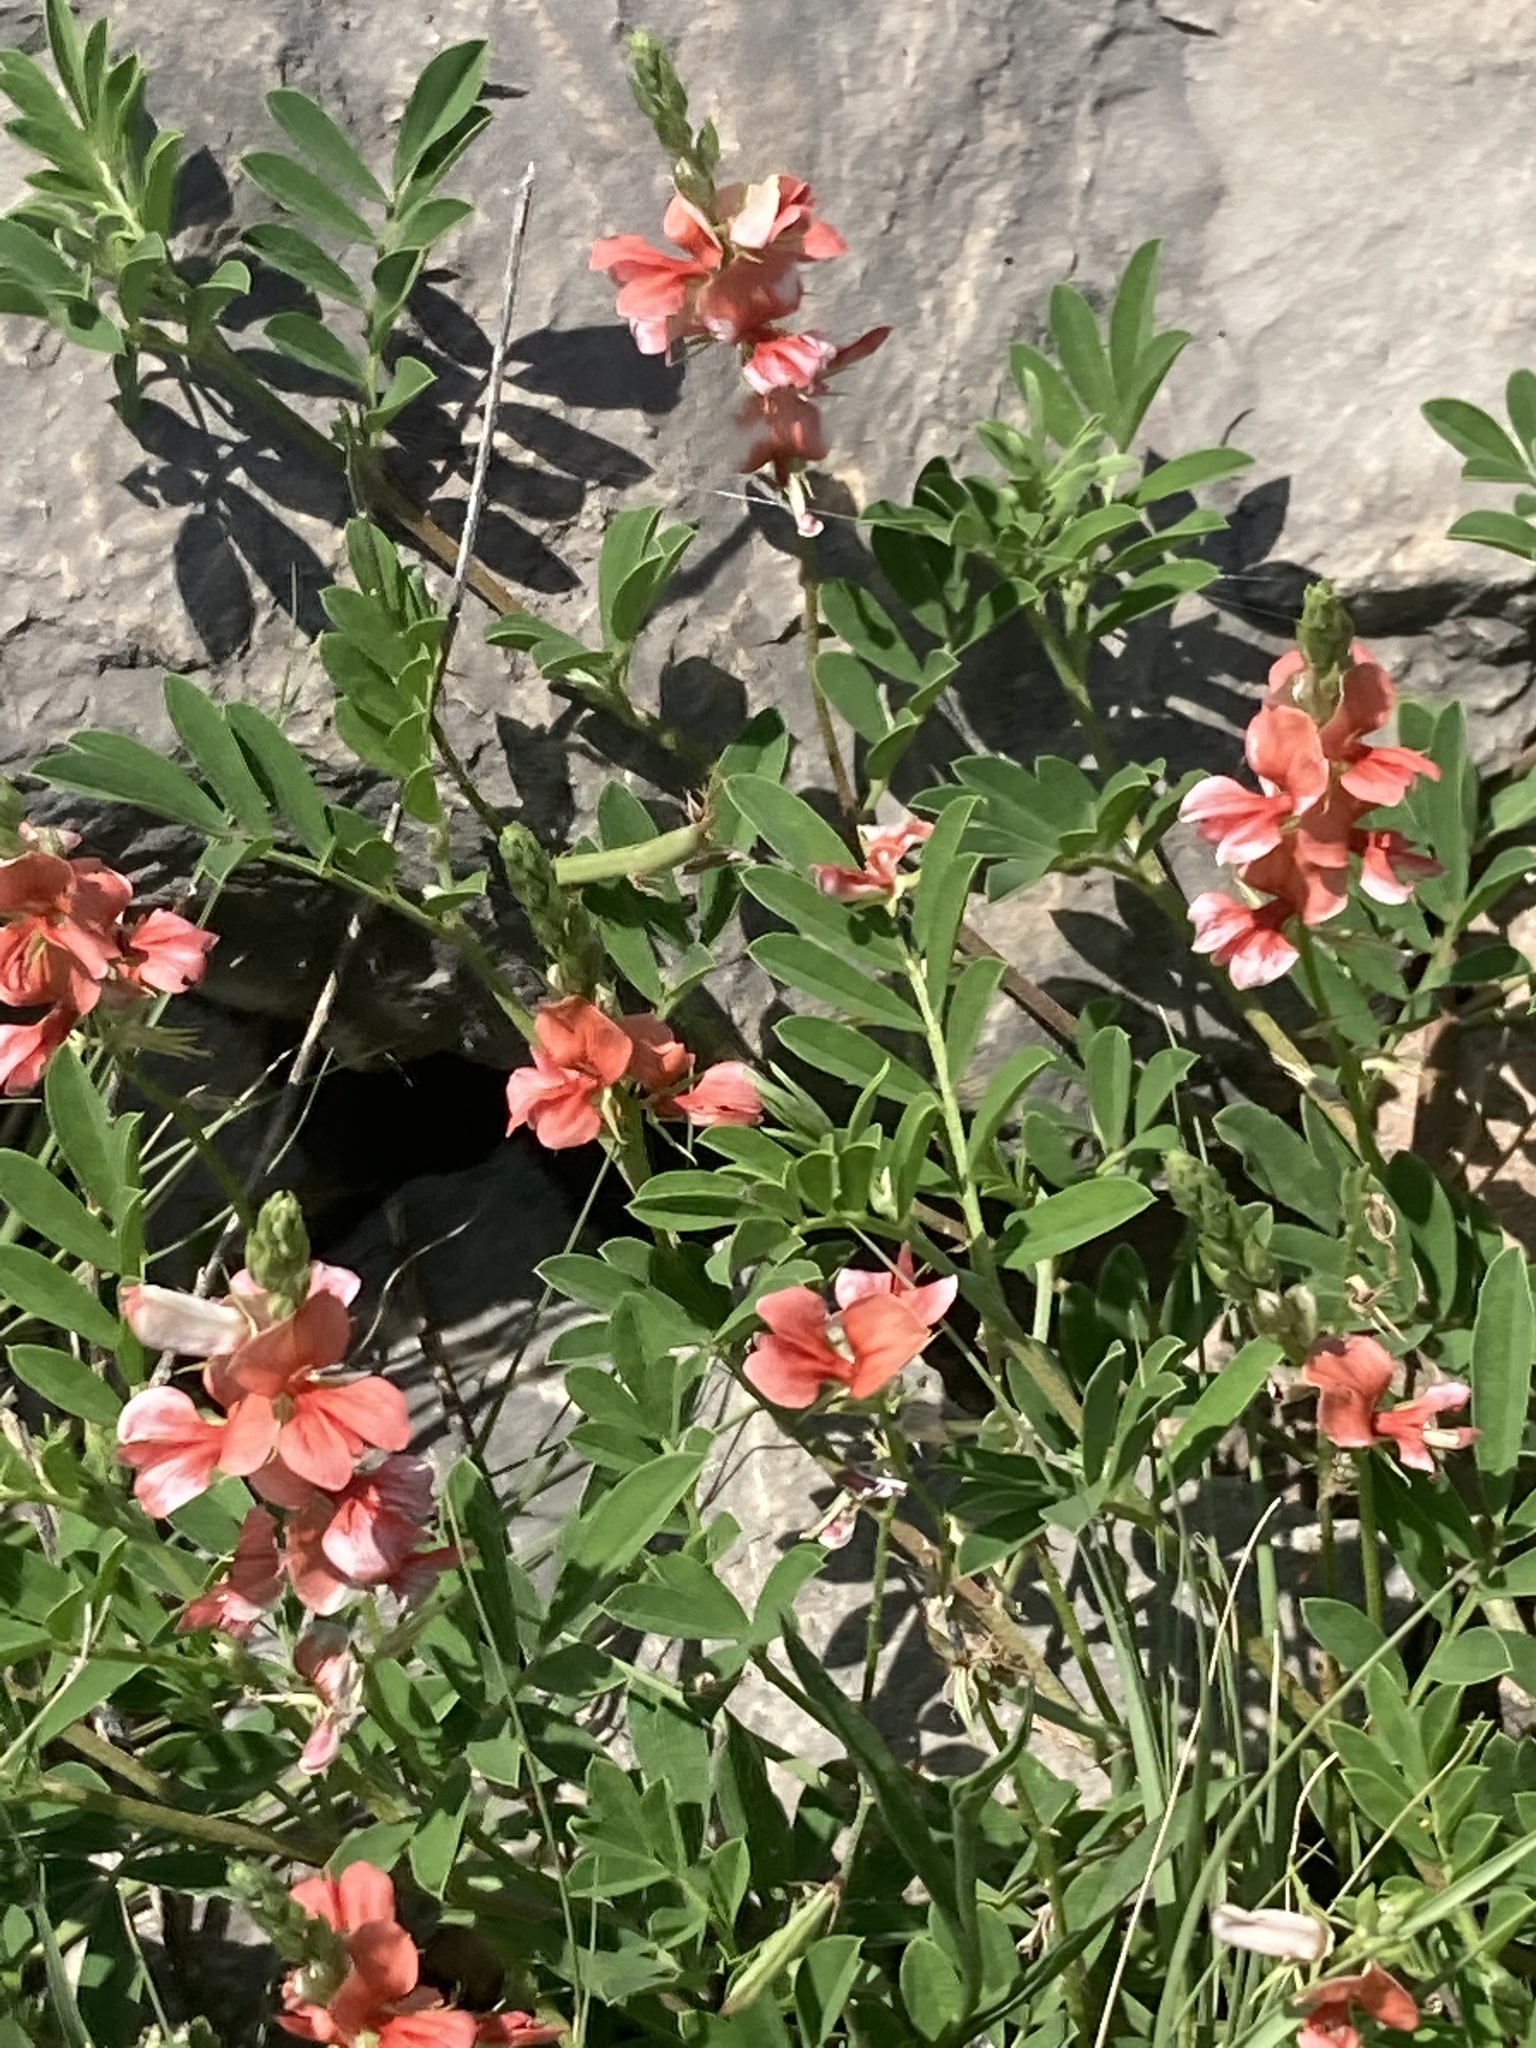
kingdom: Plantae
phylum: Tracheophyta
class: Magnoliopsida
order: Fabales
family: Fabaceae
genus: Indigofera
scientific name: Indigofera miniata
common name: Coast indigo
